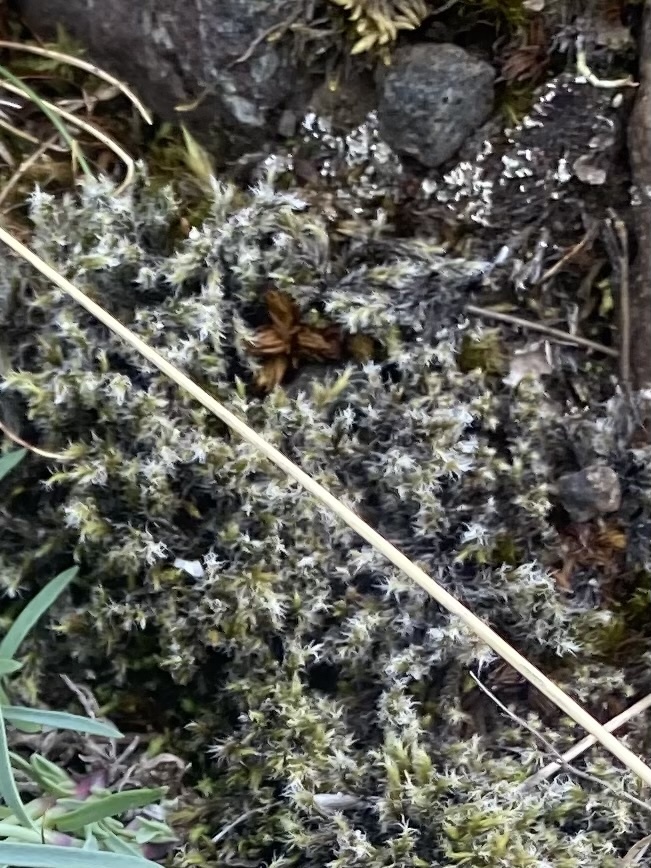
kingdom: Plantae
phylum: Bryophyta
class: Bryopsida
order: Grimmiales
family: Grimmiaceae
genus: Racomitrium
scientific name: Racomitrium lanuginosum
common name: Hoary rock moss
